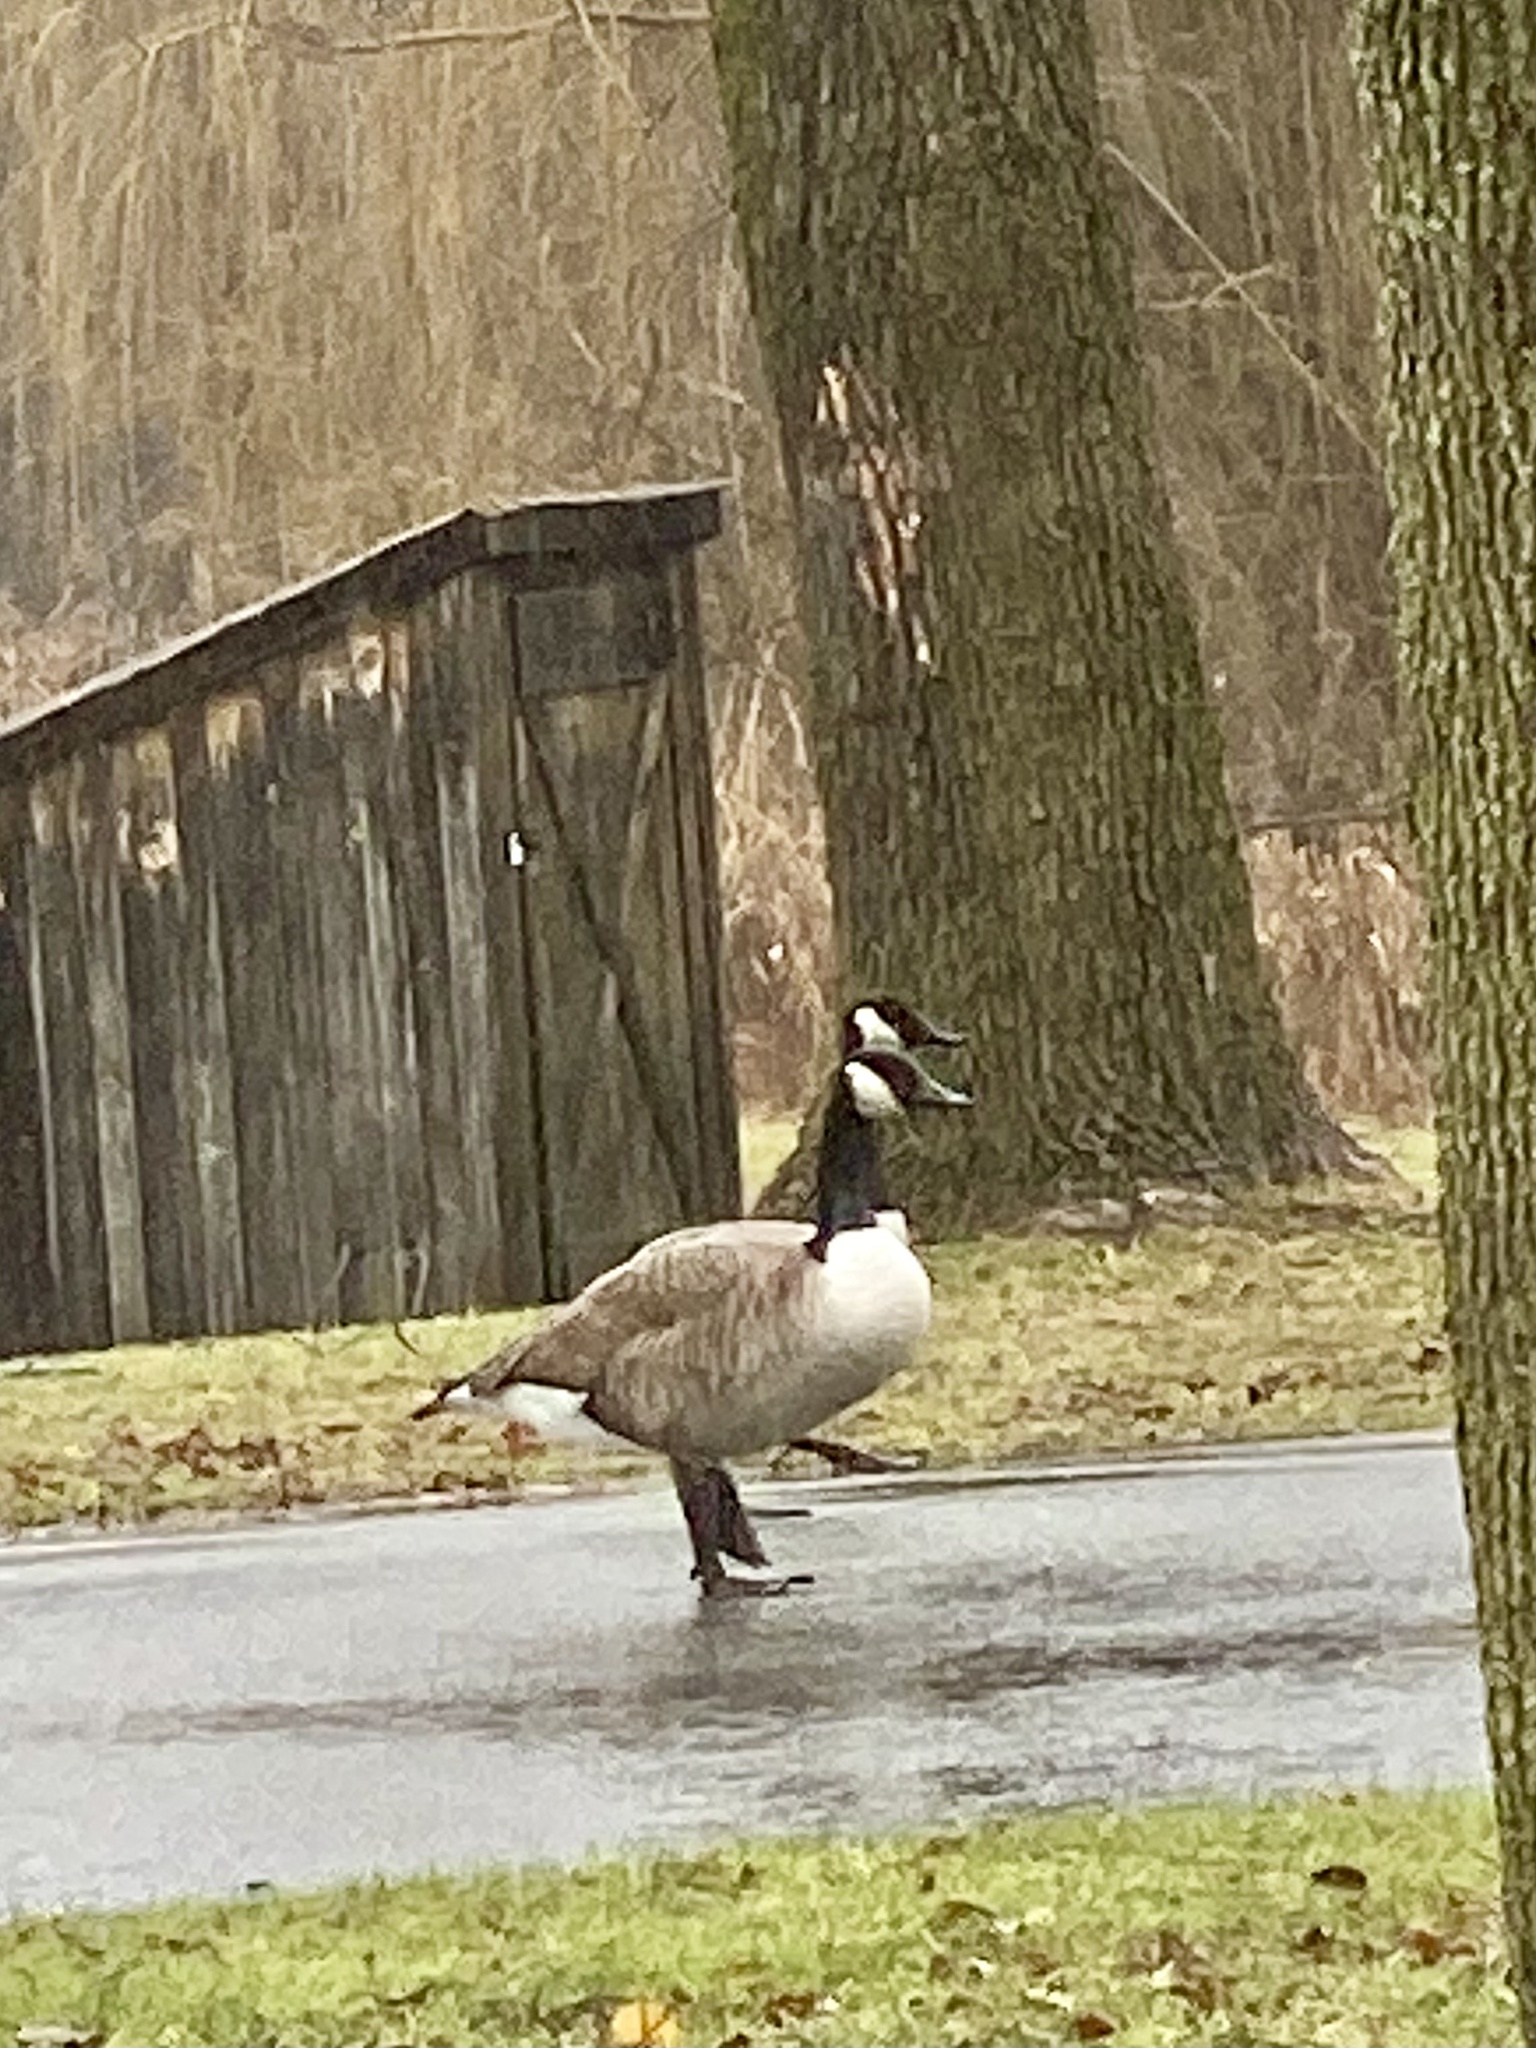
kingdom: Animalia
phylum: Chordata
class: Aves
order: Anseriformes
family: Anatidae
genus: Branta
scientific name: Branta canadensis
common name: Canada goose
